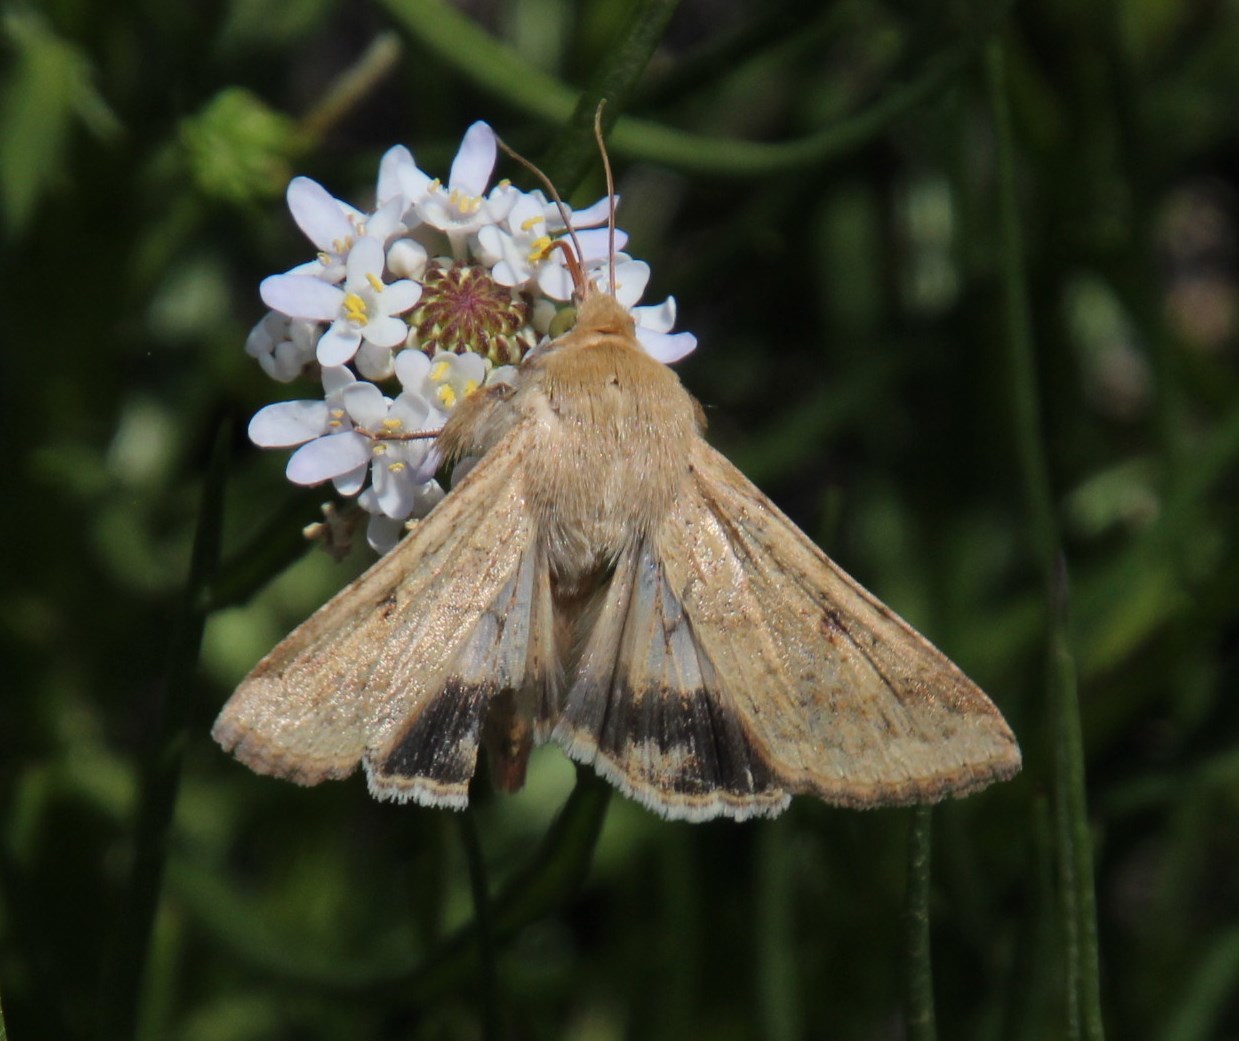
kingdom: Animalia
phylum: Arthropoda
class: Insecta
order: Lepidoptera
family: Noctuidae
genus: Helicoverpa
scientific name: Helicoverpa armigera
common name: Cotton bollworm
